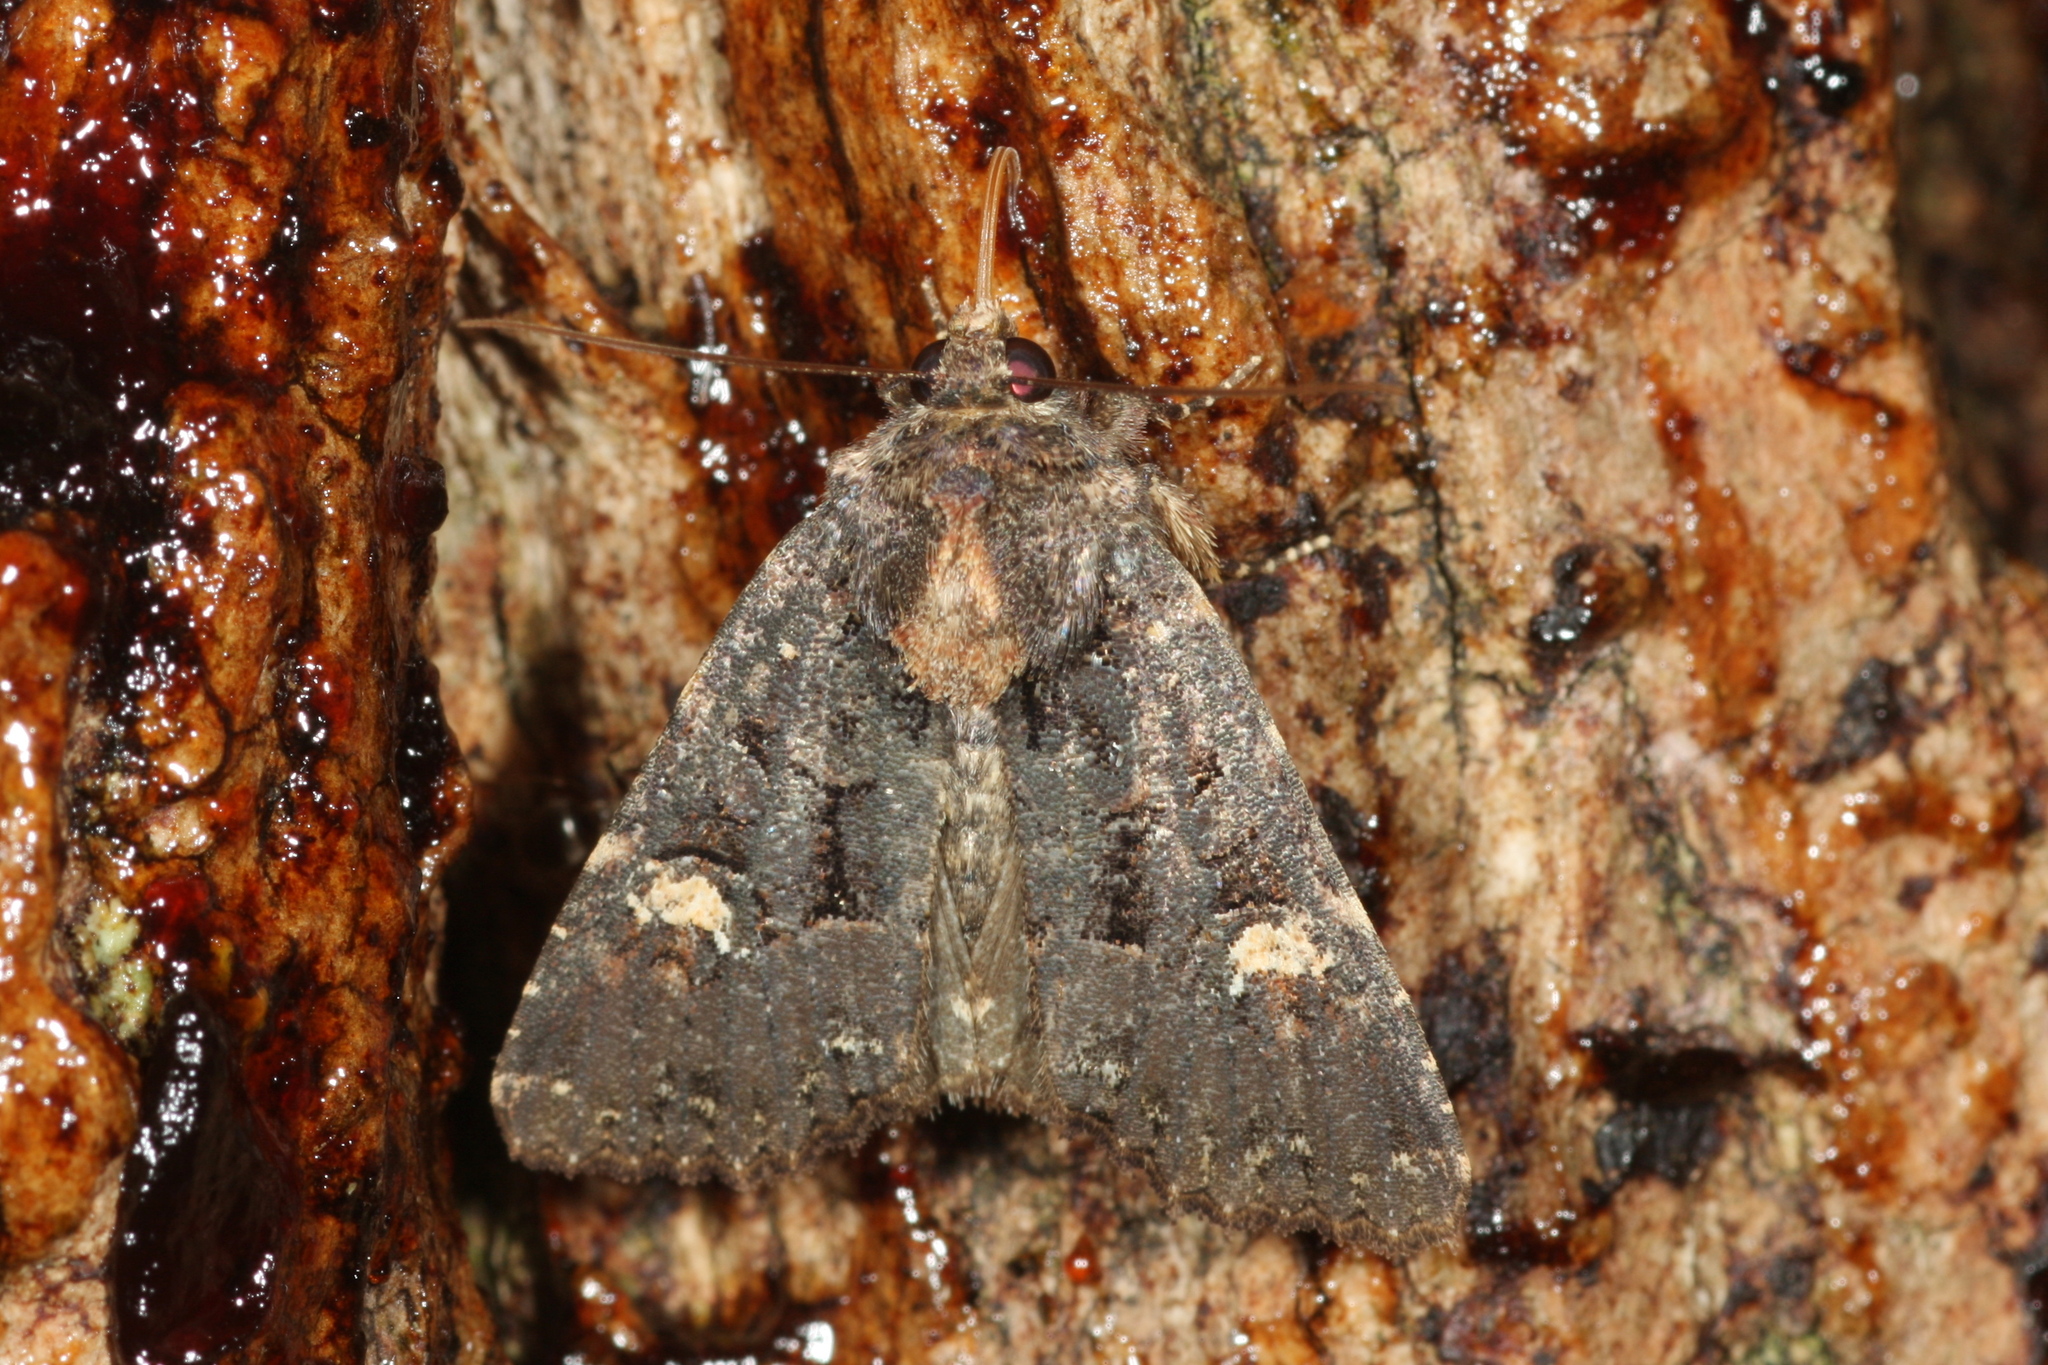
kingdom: Animalia
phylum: Arthropoda
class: Insecta
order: Lepidoptera
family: Noctuidae
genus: Mesapamea
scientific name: Mesapamea
